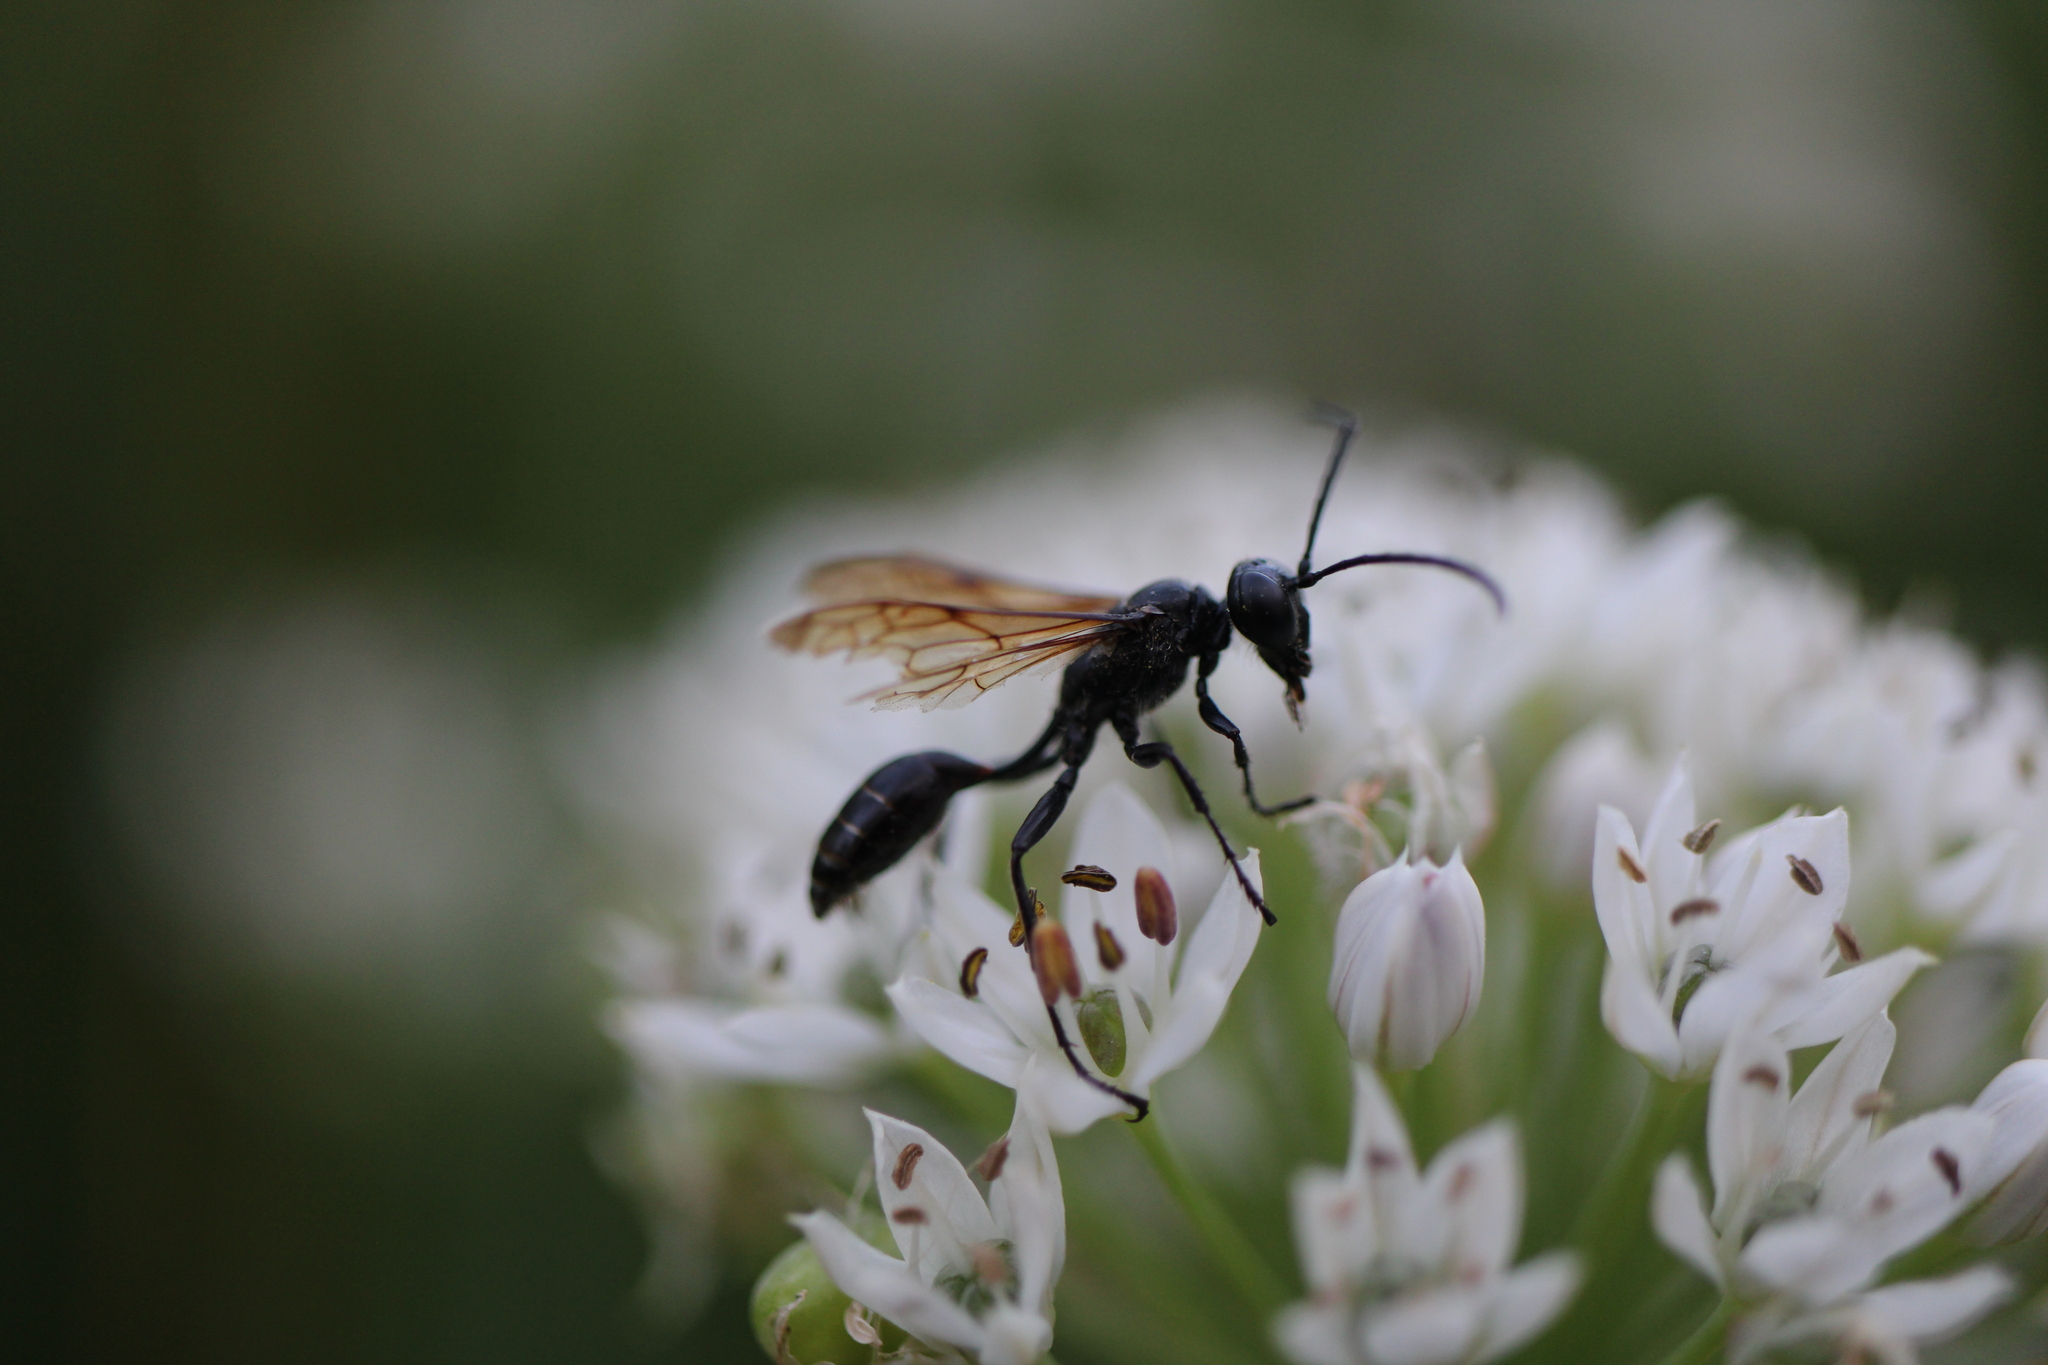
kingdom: Animalia
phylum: Arthropoda
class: Insecta
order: Hymenoptera
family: Sphecidae
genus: Isodontia
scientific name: Isodontia mexicana
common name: Mud dauber
